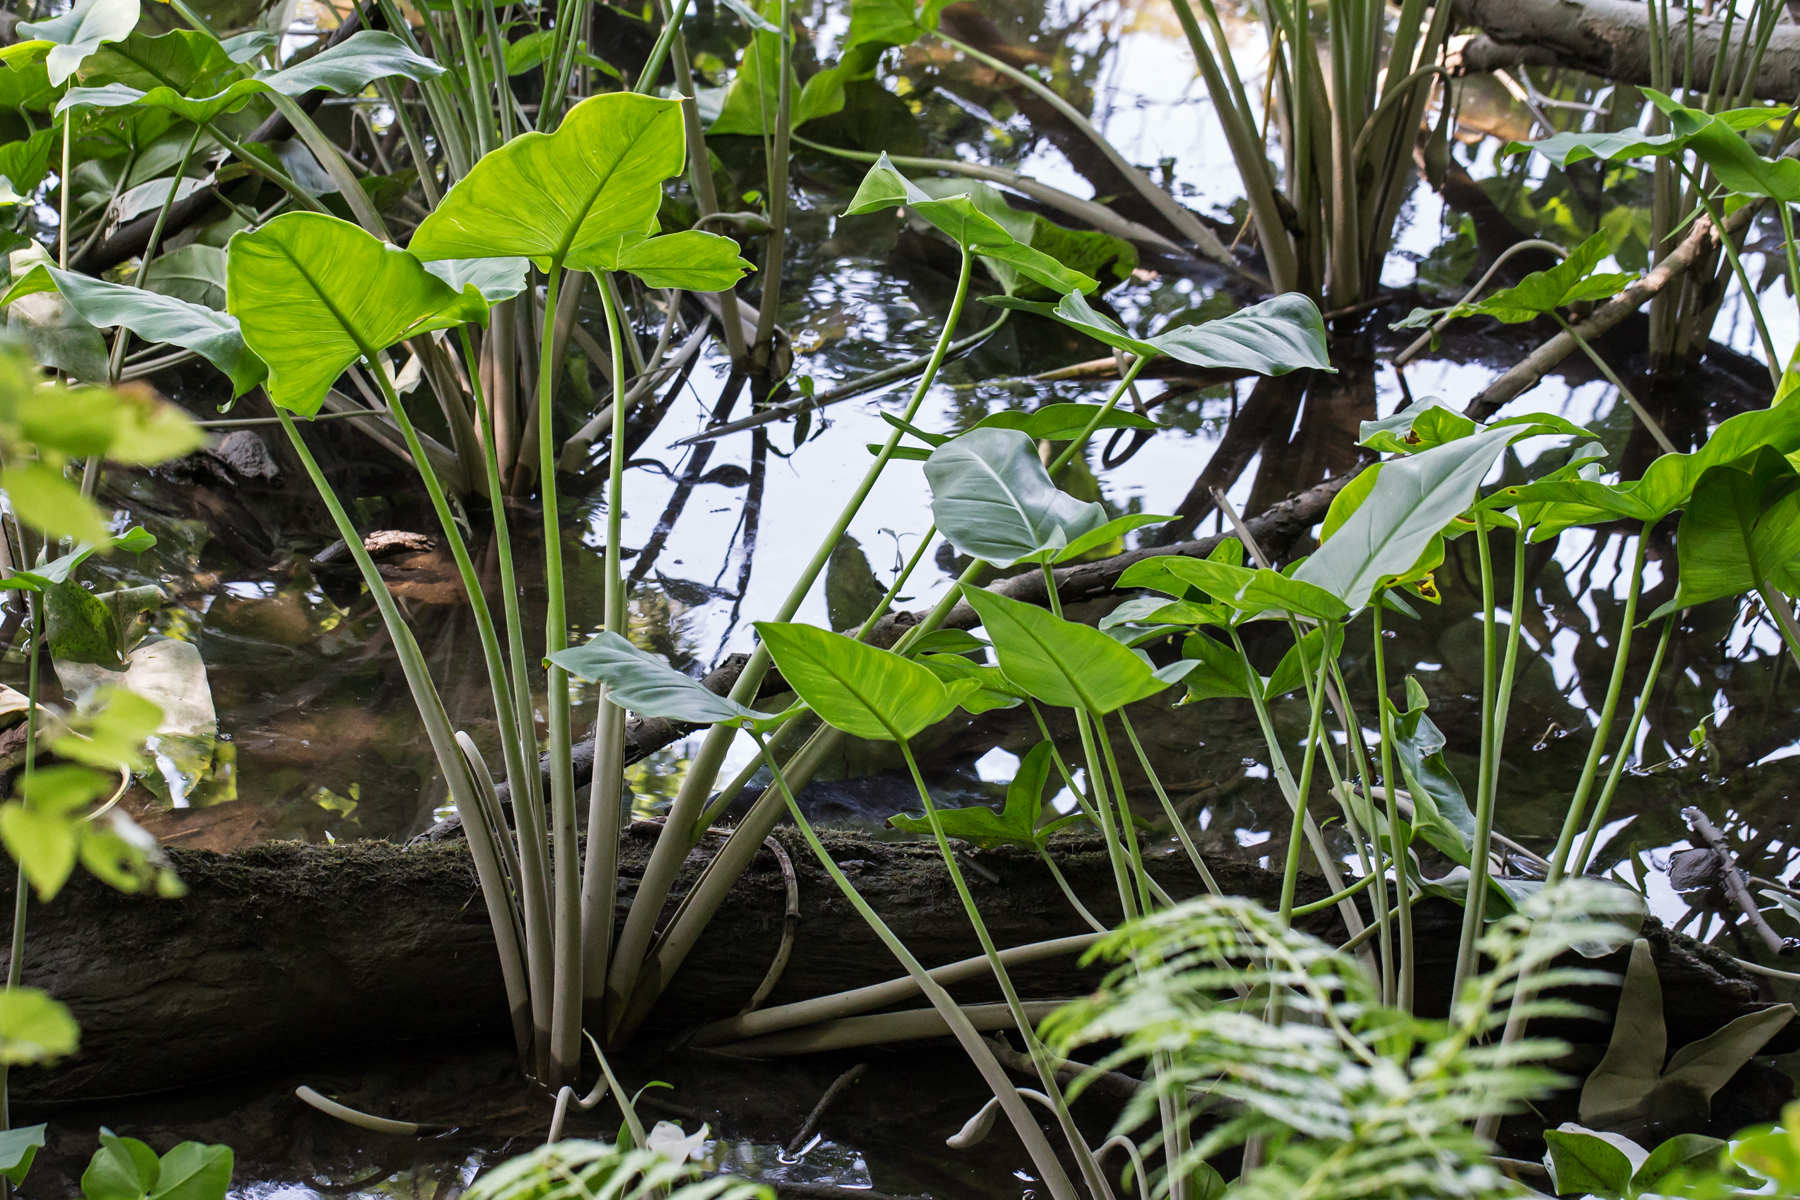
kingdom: Plantae
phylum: Tracheophyta
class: Liliopsida
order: Alismatales
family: Araceae
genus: Peltandra
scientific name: Peltandra virginica
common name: Arrow arum
